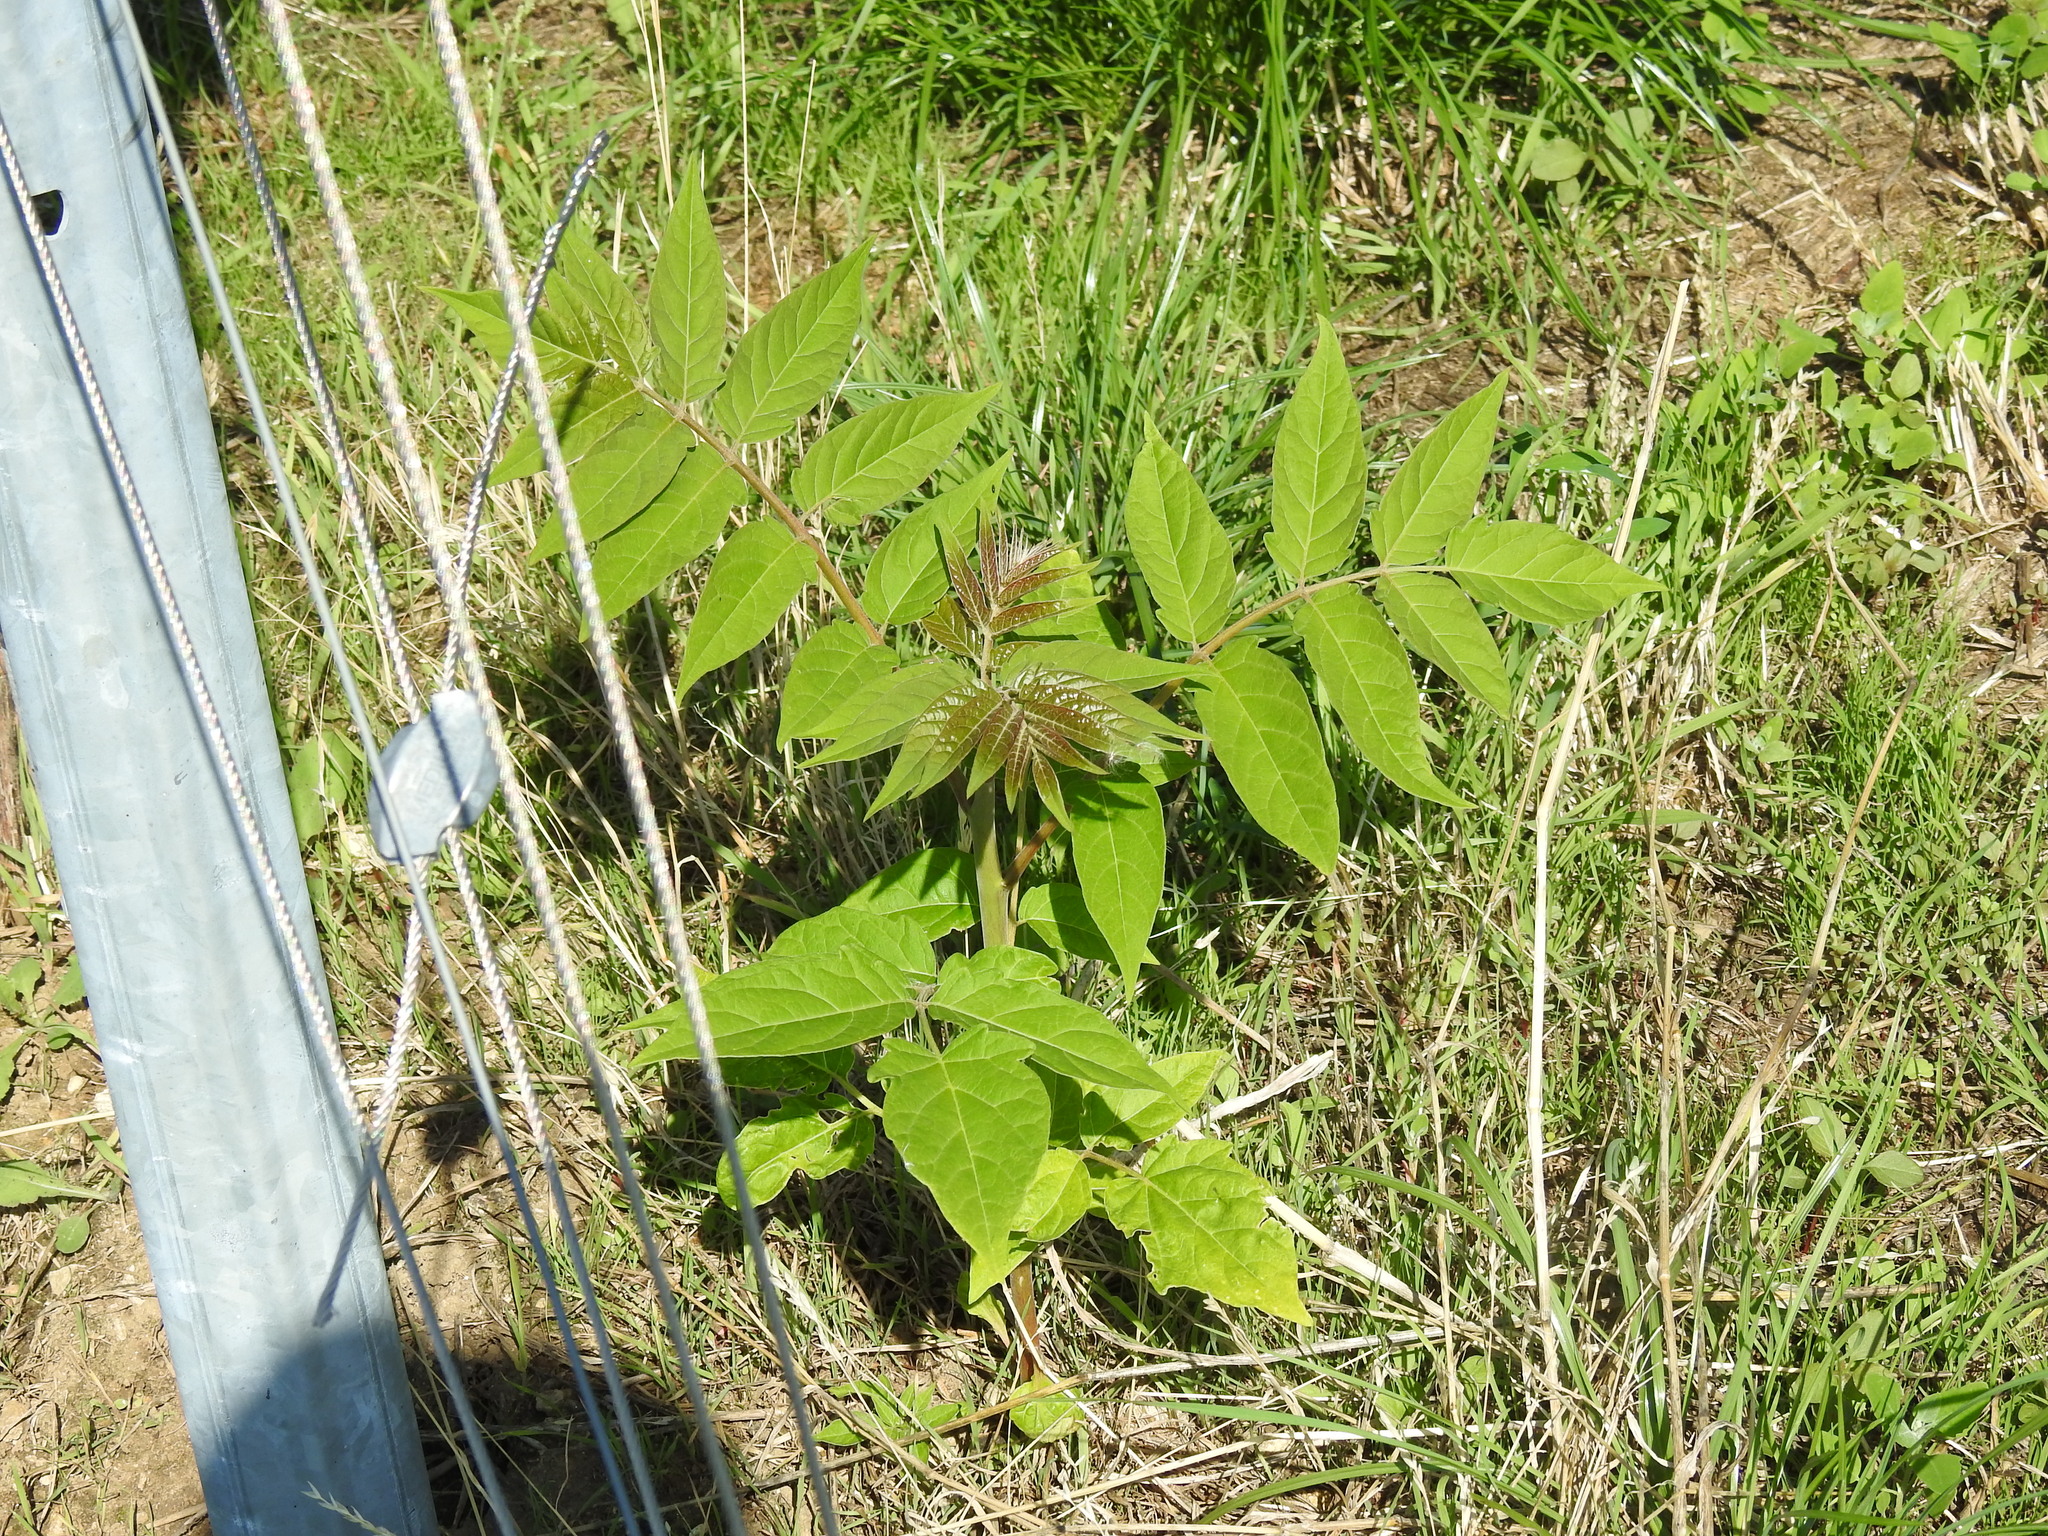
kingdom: Plantae
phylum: Tracheophyta
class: Magnoliopsida
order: Sapindales
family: Simaroubaceae
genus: Ailanthus
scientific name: Ailanthus altissima
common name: Tree-of-heaven
